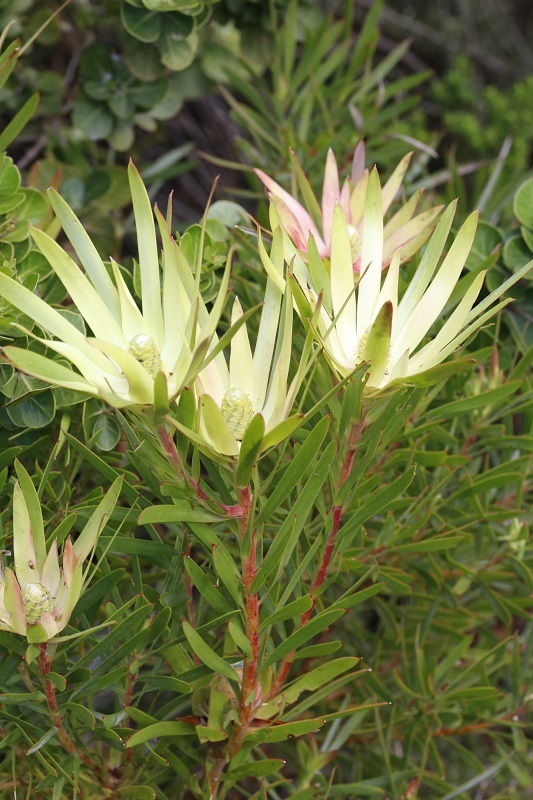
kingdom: Plantae
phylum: Tracheophyta
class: Magnoliopsida
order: Proteales
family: Proteaceae
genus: Leucadendron
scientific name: Leucadendron
